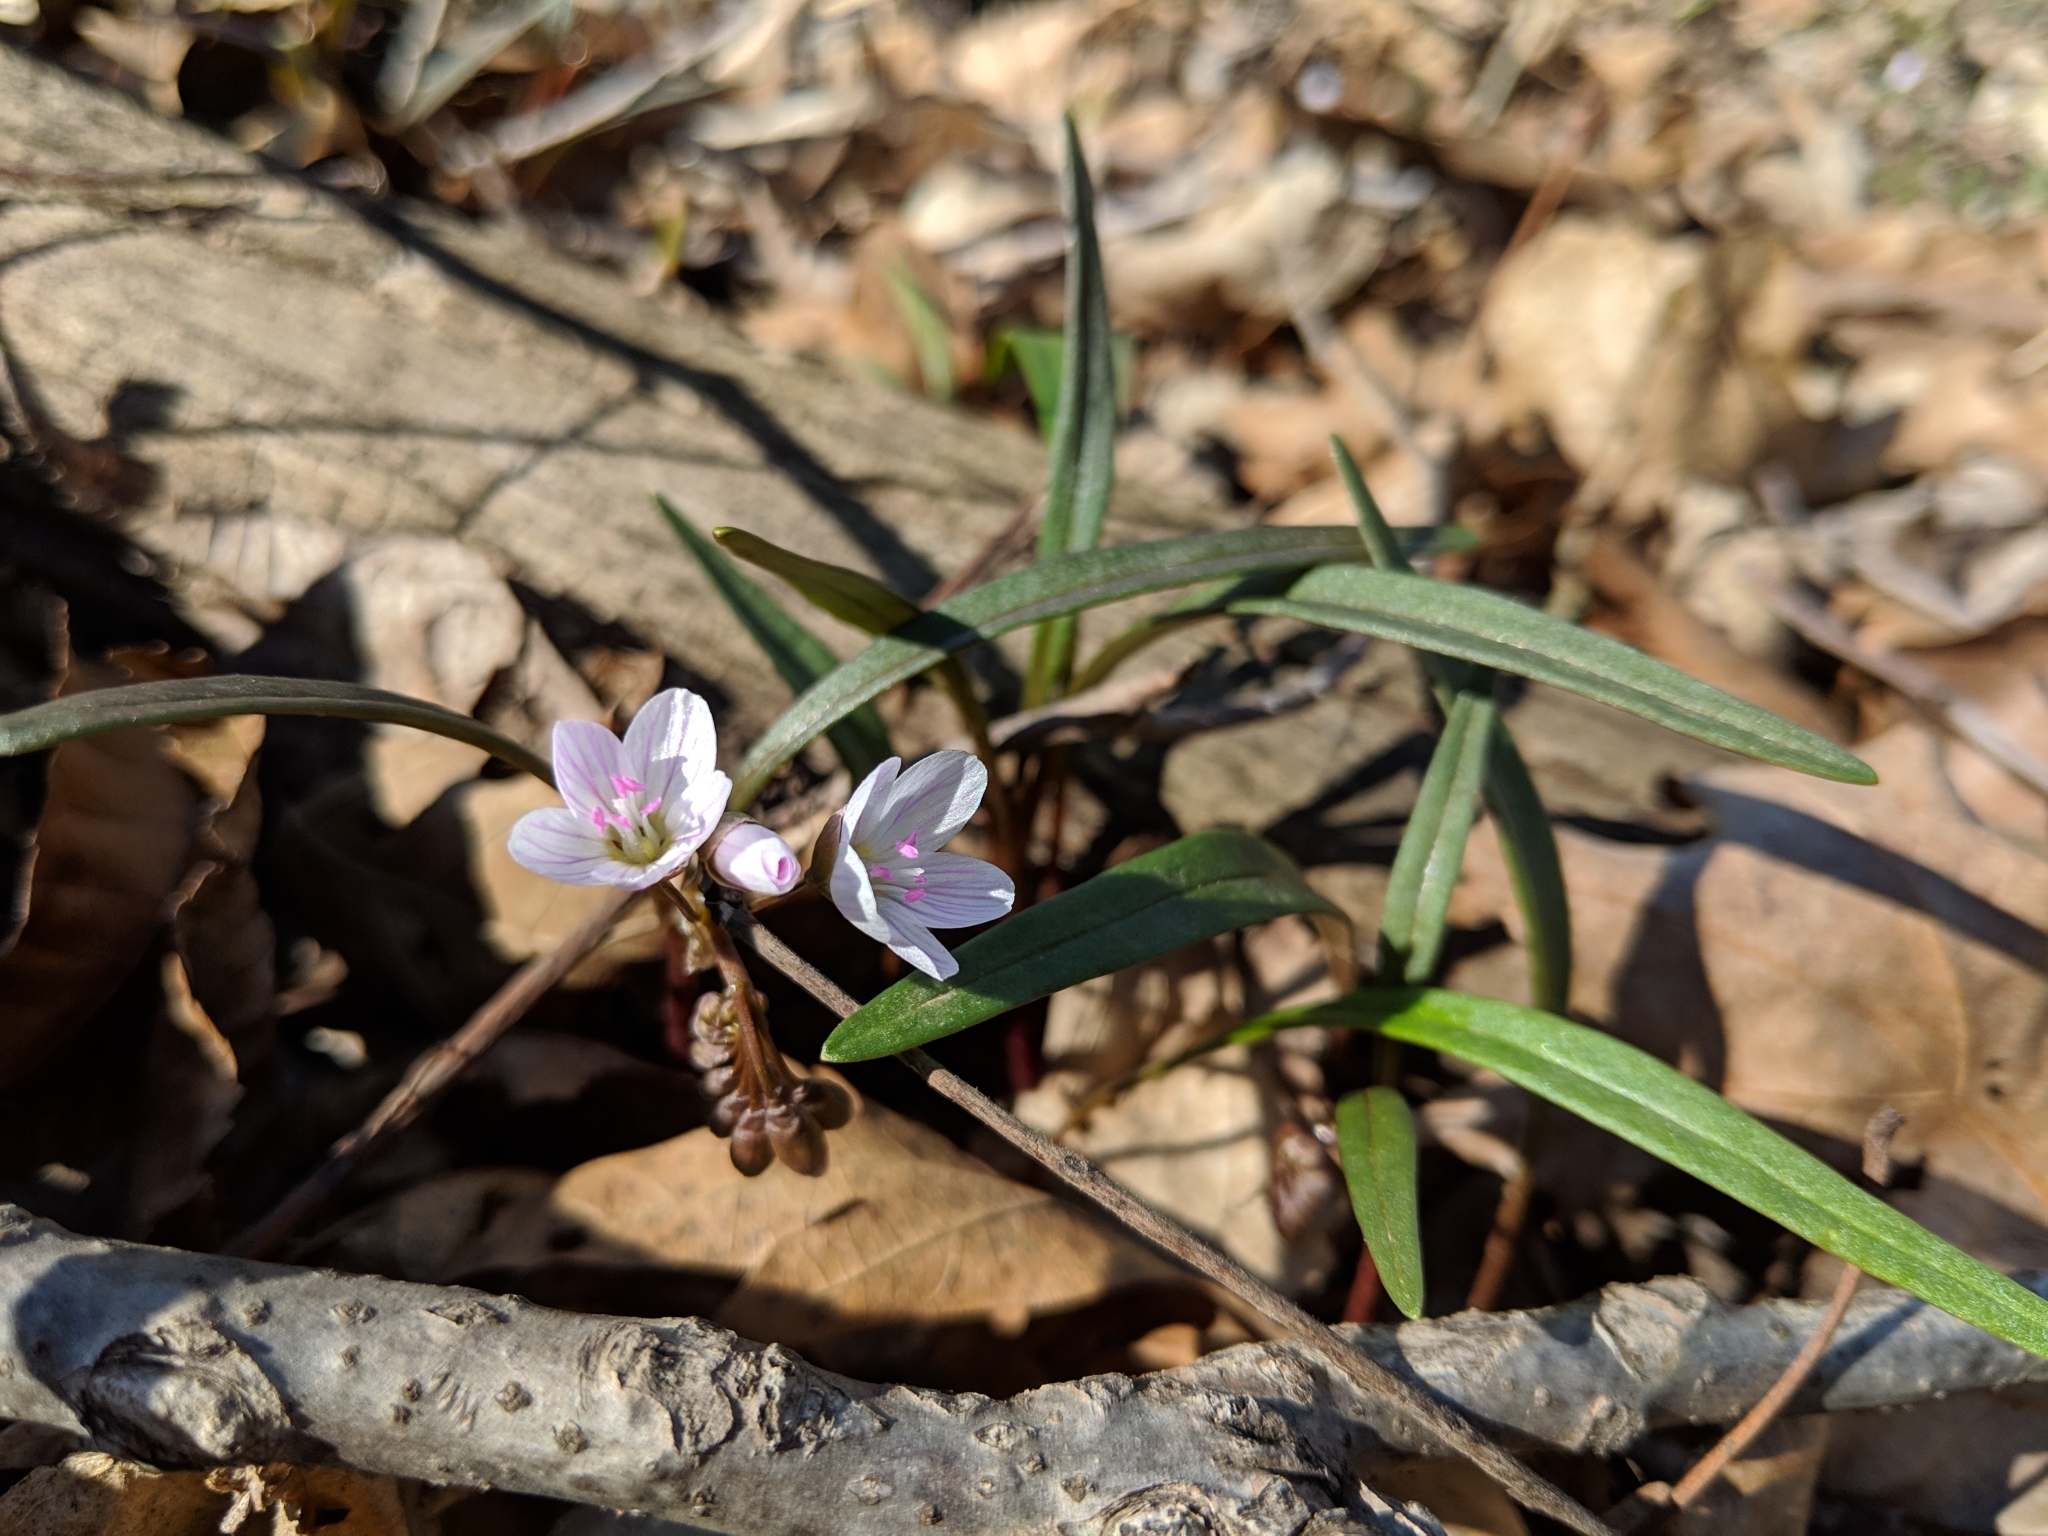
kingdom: Plantae
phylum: Tracheophyta
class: Magnoliopsida
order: Caryophyllales
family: Montiaceae
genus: Claytonia
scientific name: Claytonia virginica
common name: Virginia springbeauty
